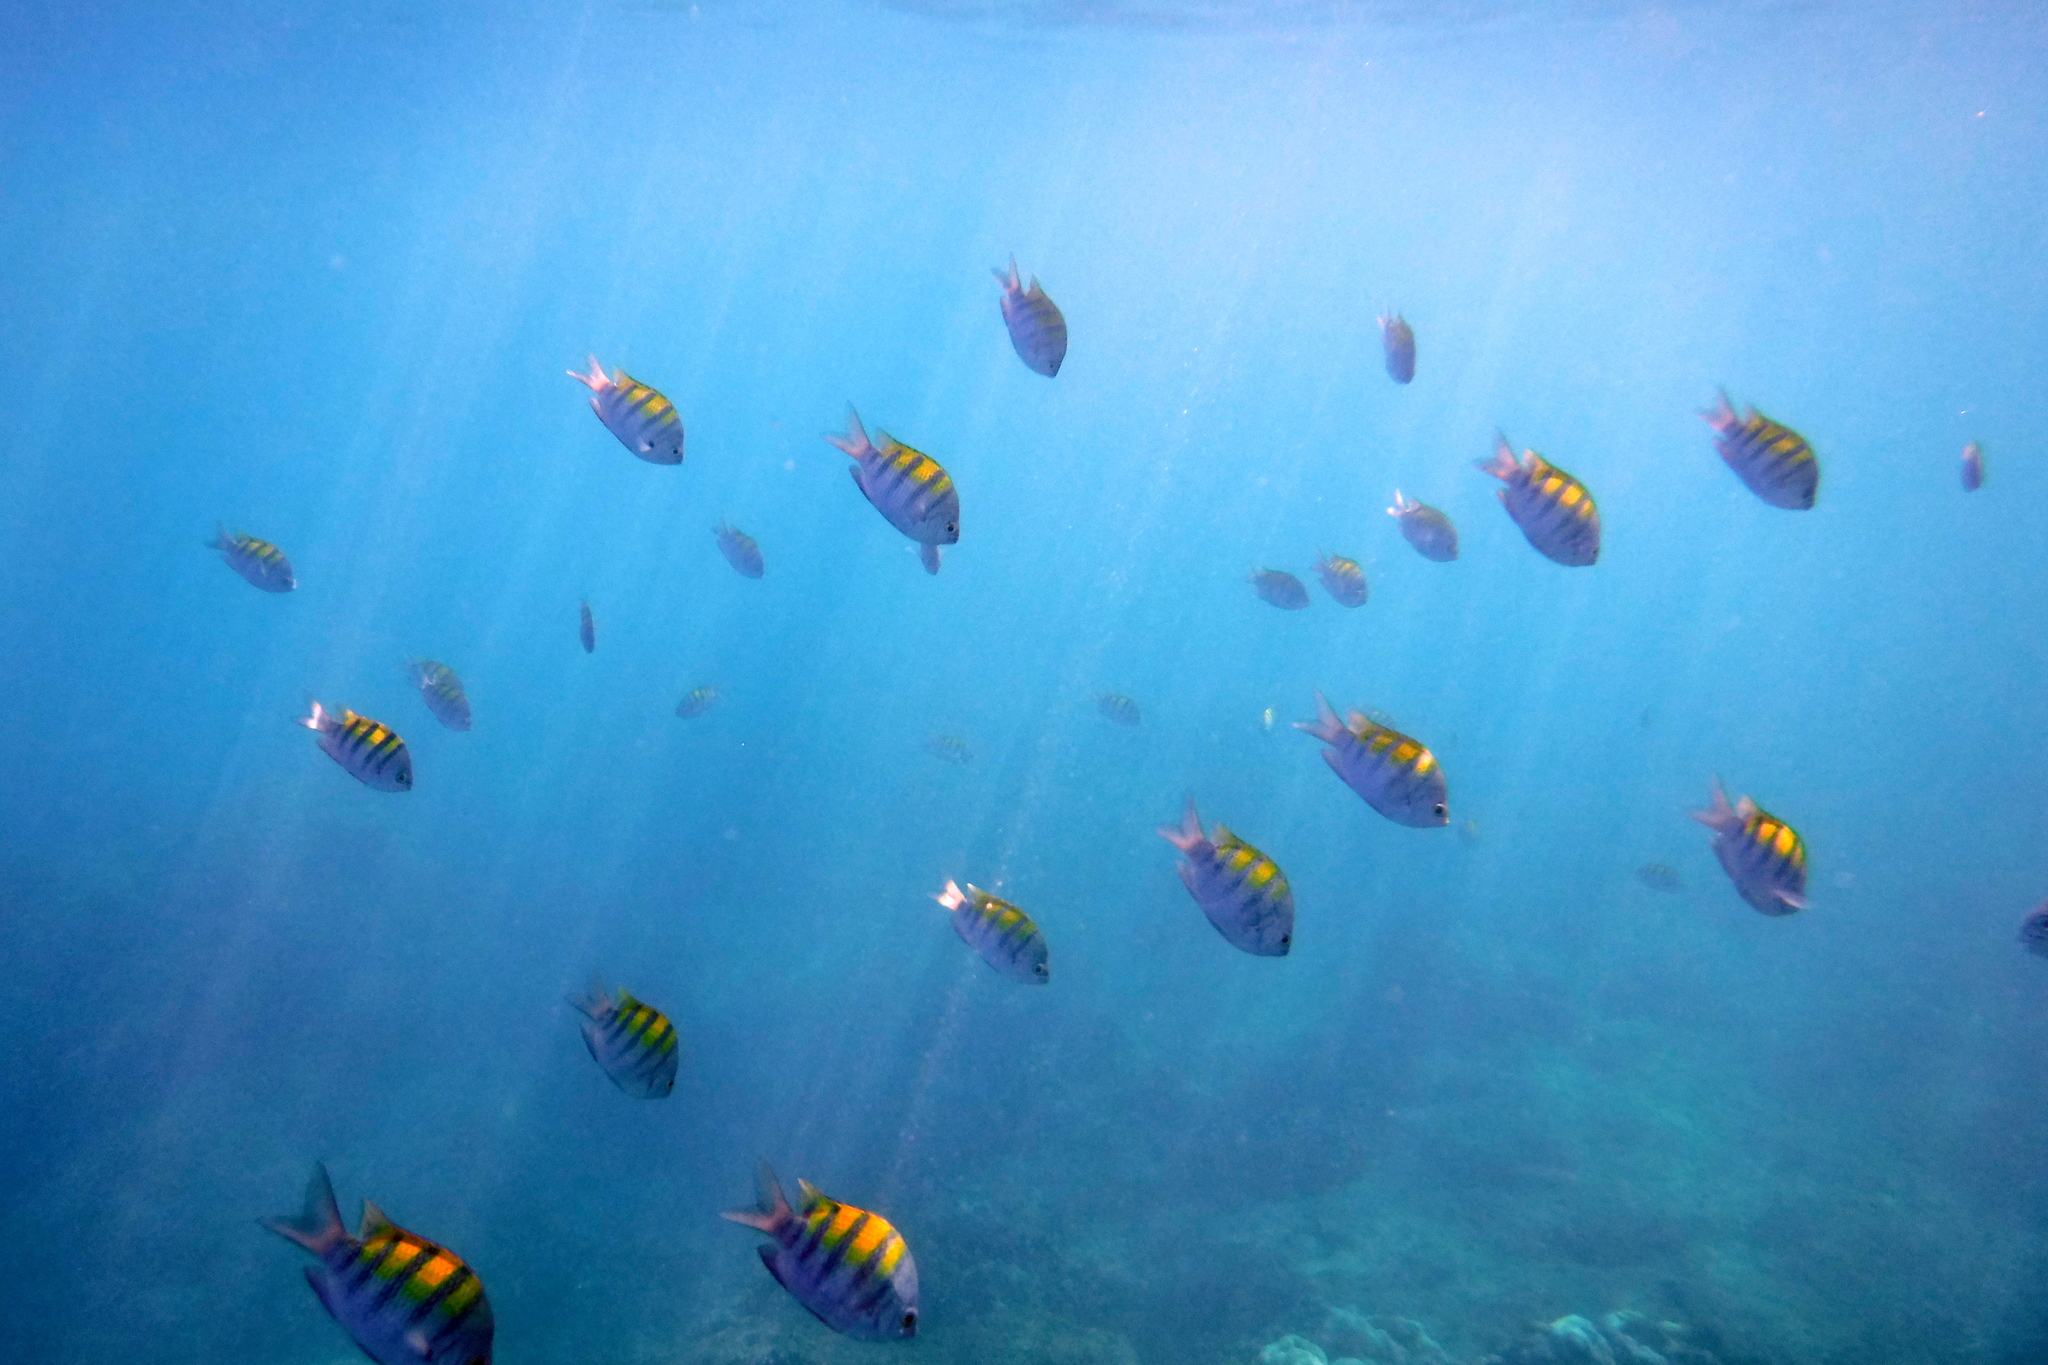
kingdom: Animalia
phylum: Chordata
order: Perciformes
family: Pomacentridae
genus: Abudefduf
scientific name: Abudefduf troschelii
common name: Panamic sergeant major
